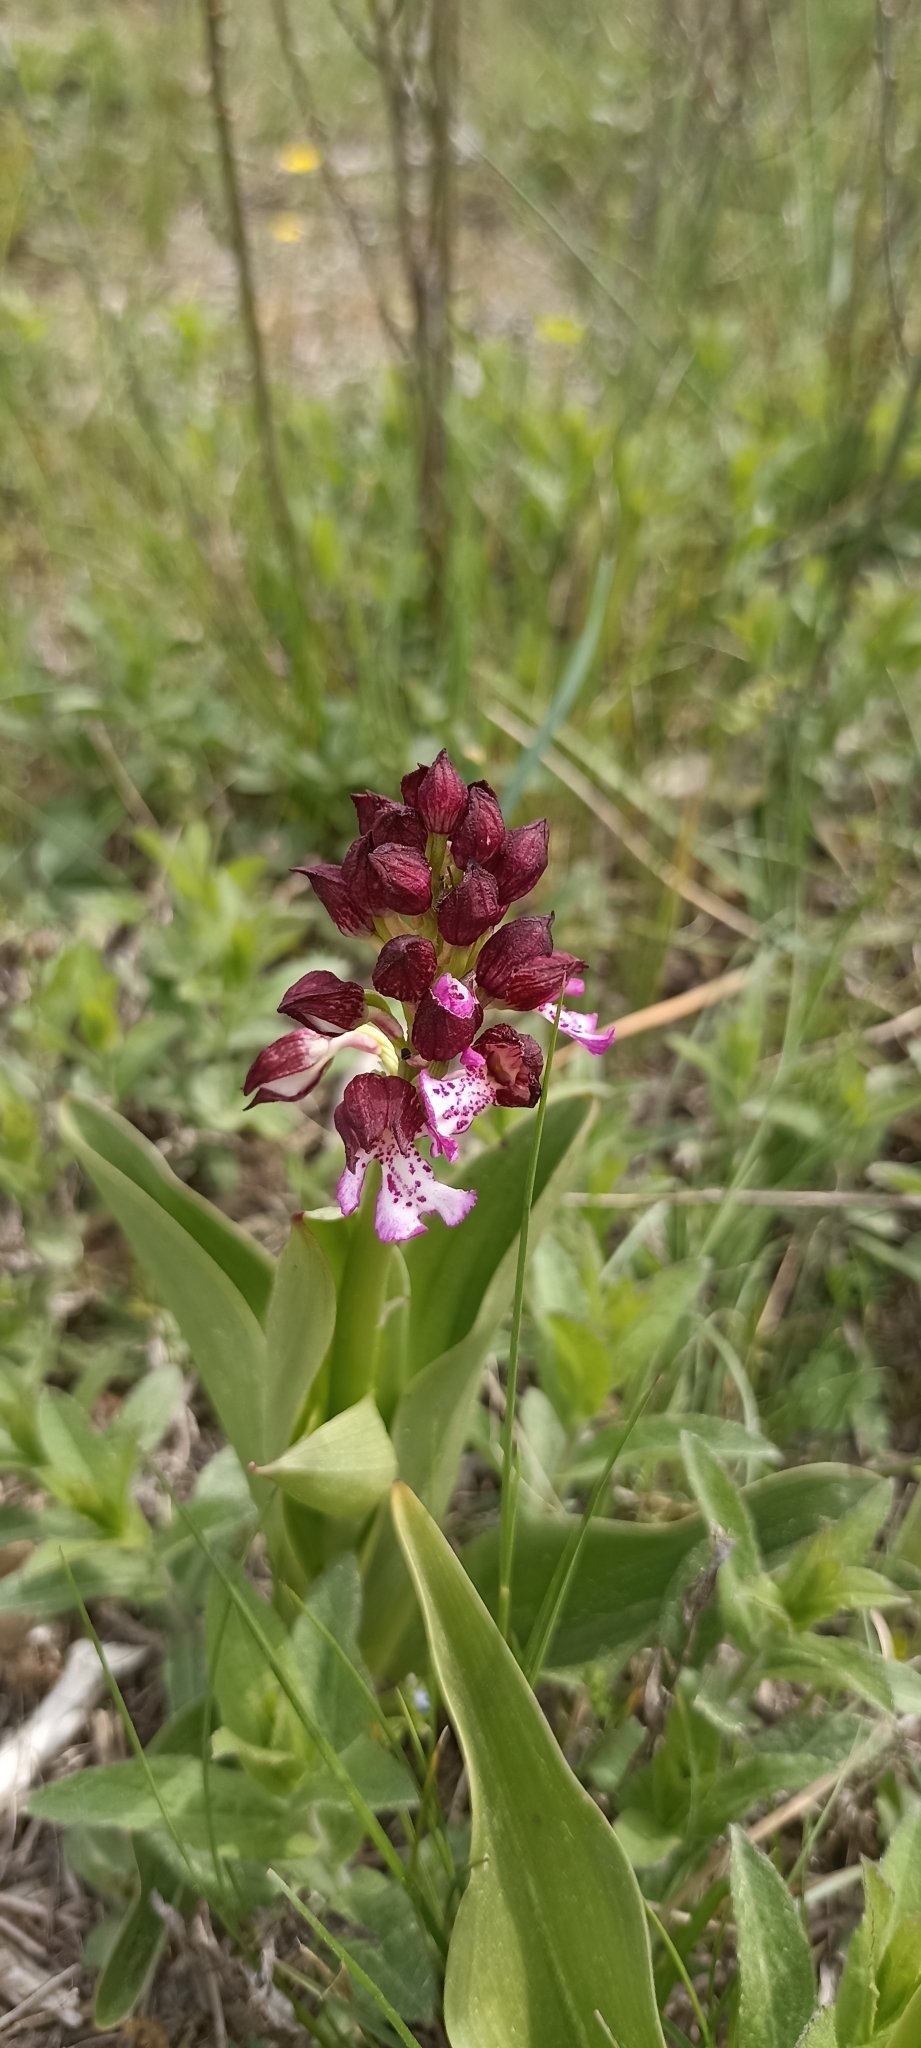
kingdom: Plantae
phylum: Tracheophyta
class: Liliopsida
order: Asparagales
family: Orchidaceae
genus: Orchis
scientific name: Orchis purpurea
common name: Lady orchid
